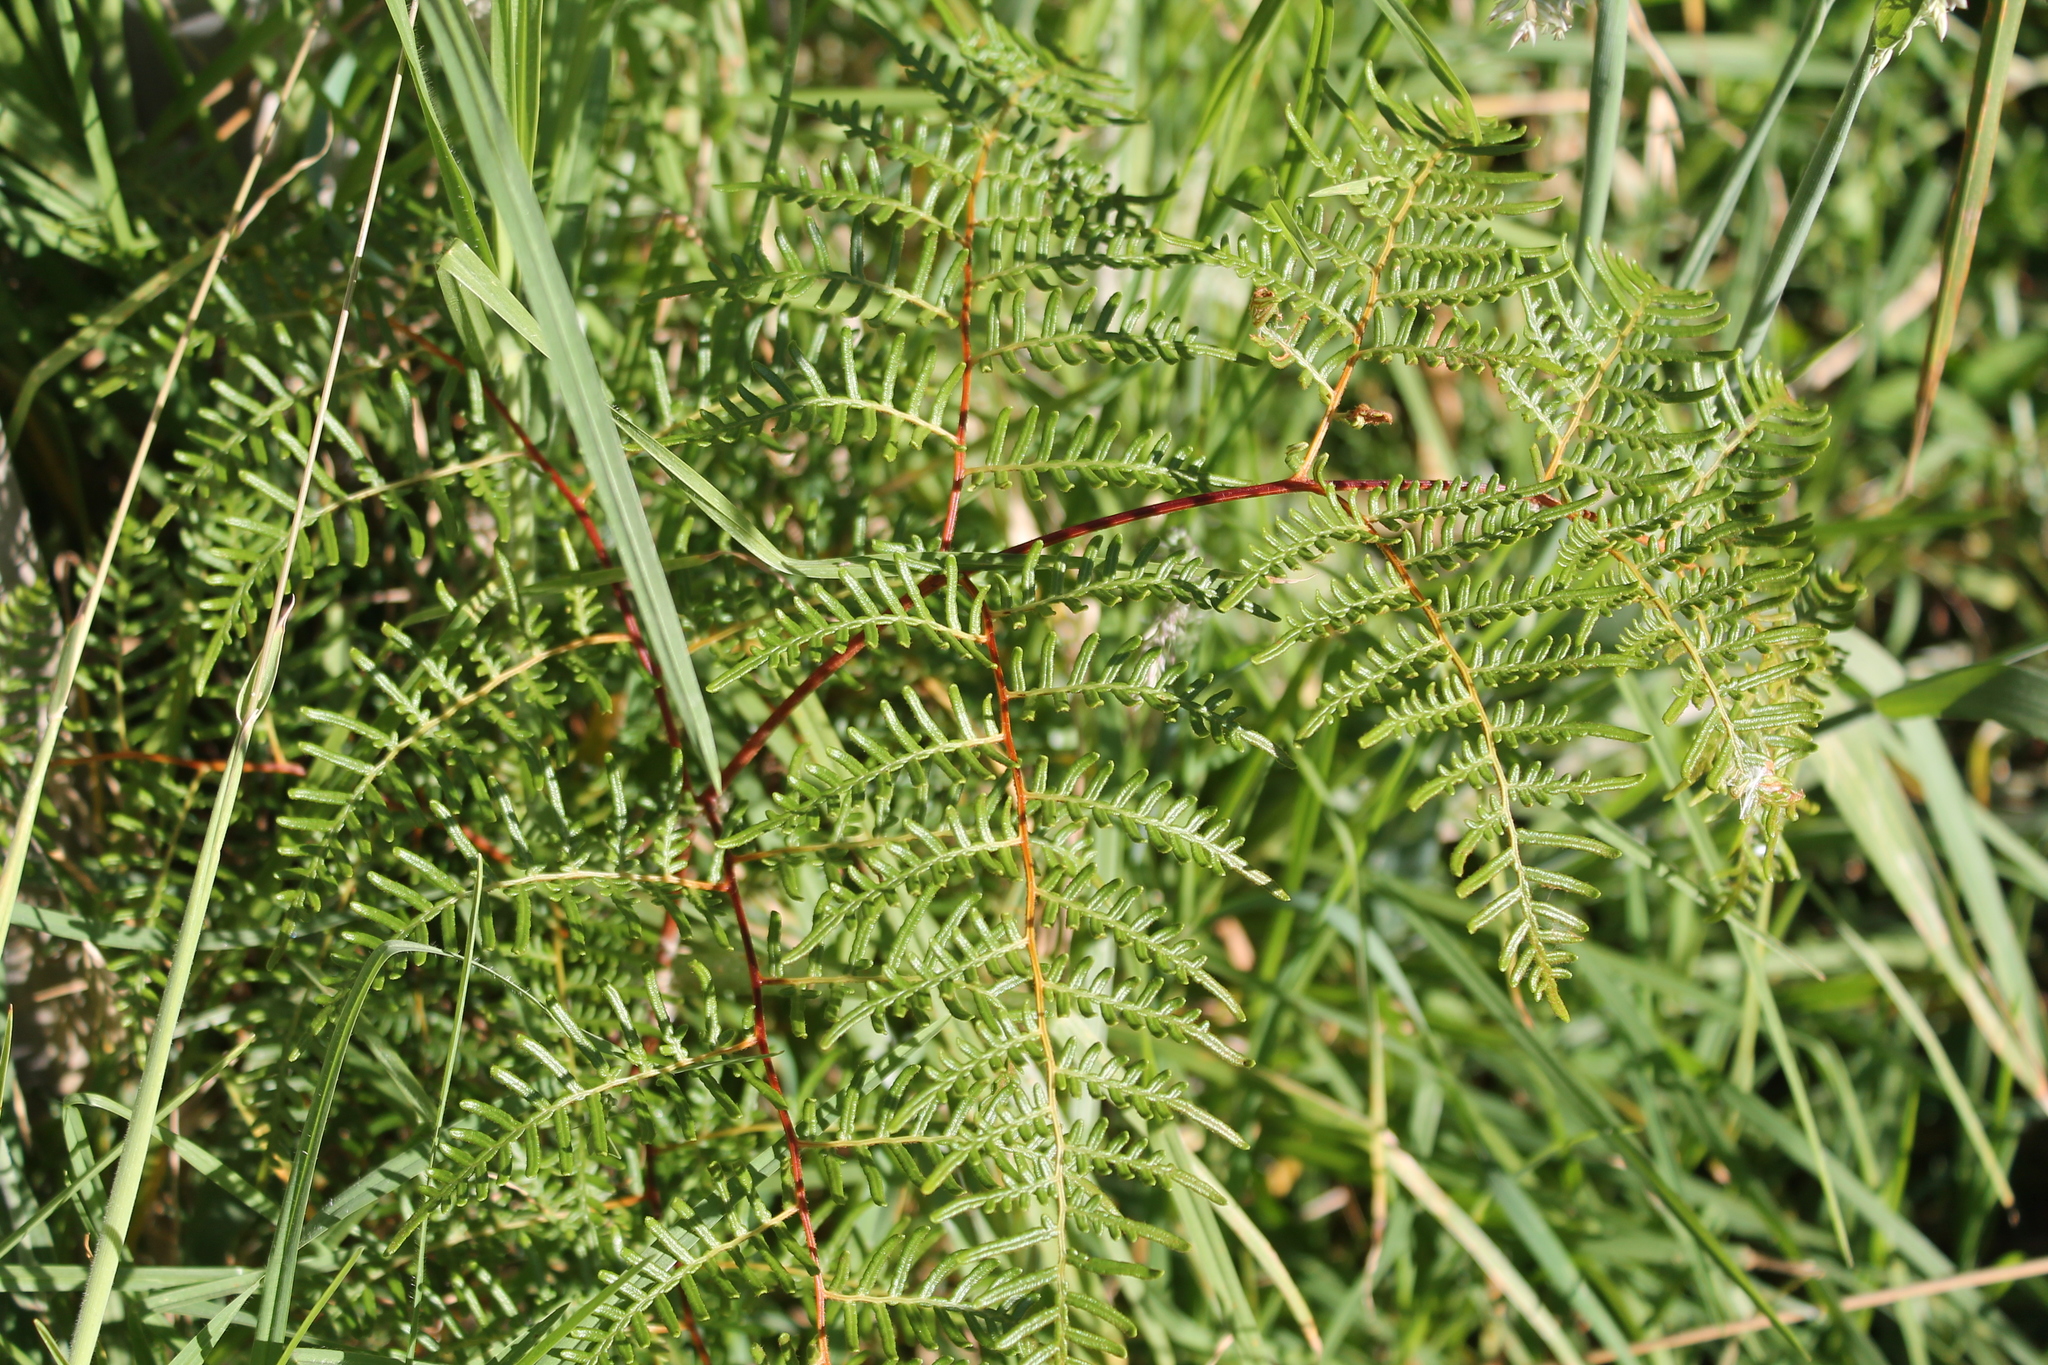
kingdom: Plantae
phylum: Tracheophyta
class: Polypodiopsida
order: Polypodiales
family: Dennstaedtiaceae
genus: Pteridium
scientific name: Pteridium esculentum
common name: Bracken fern
